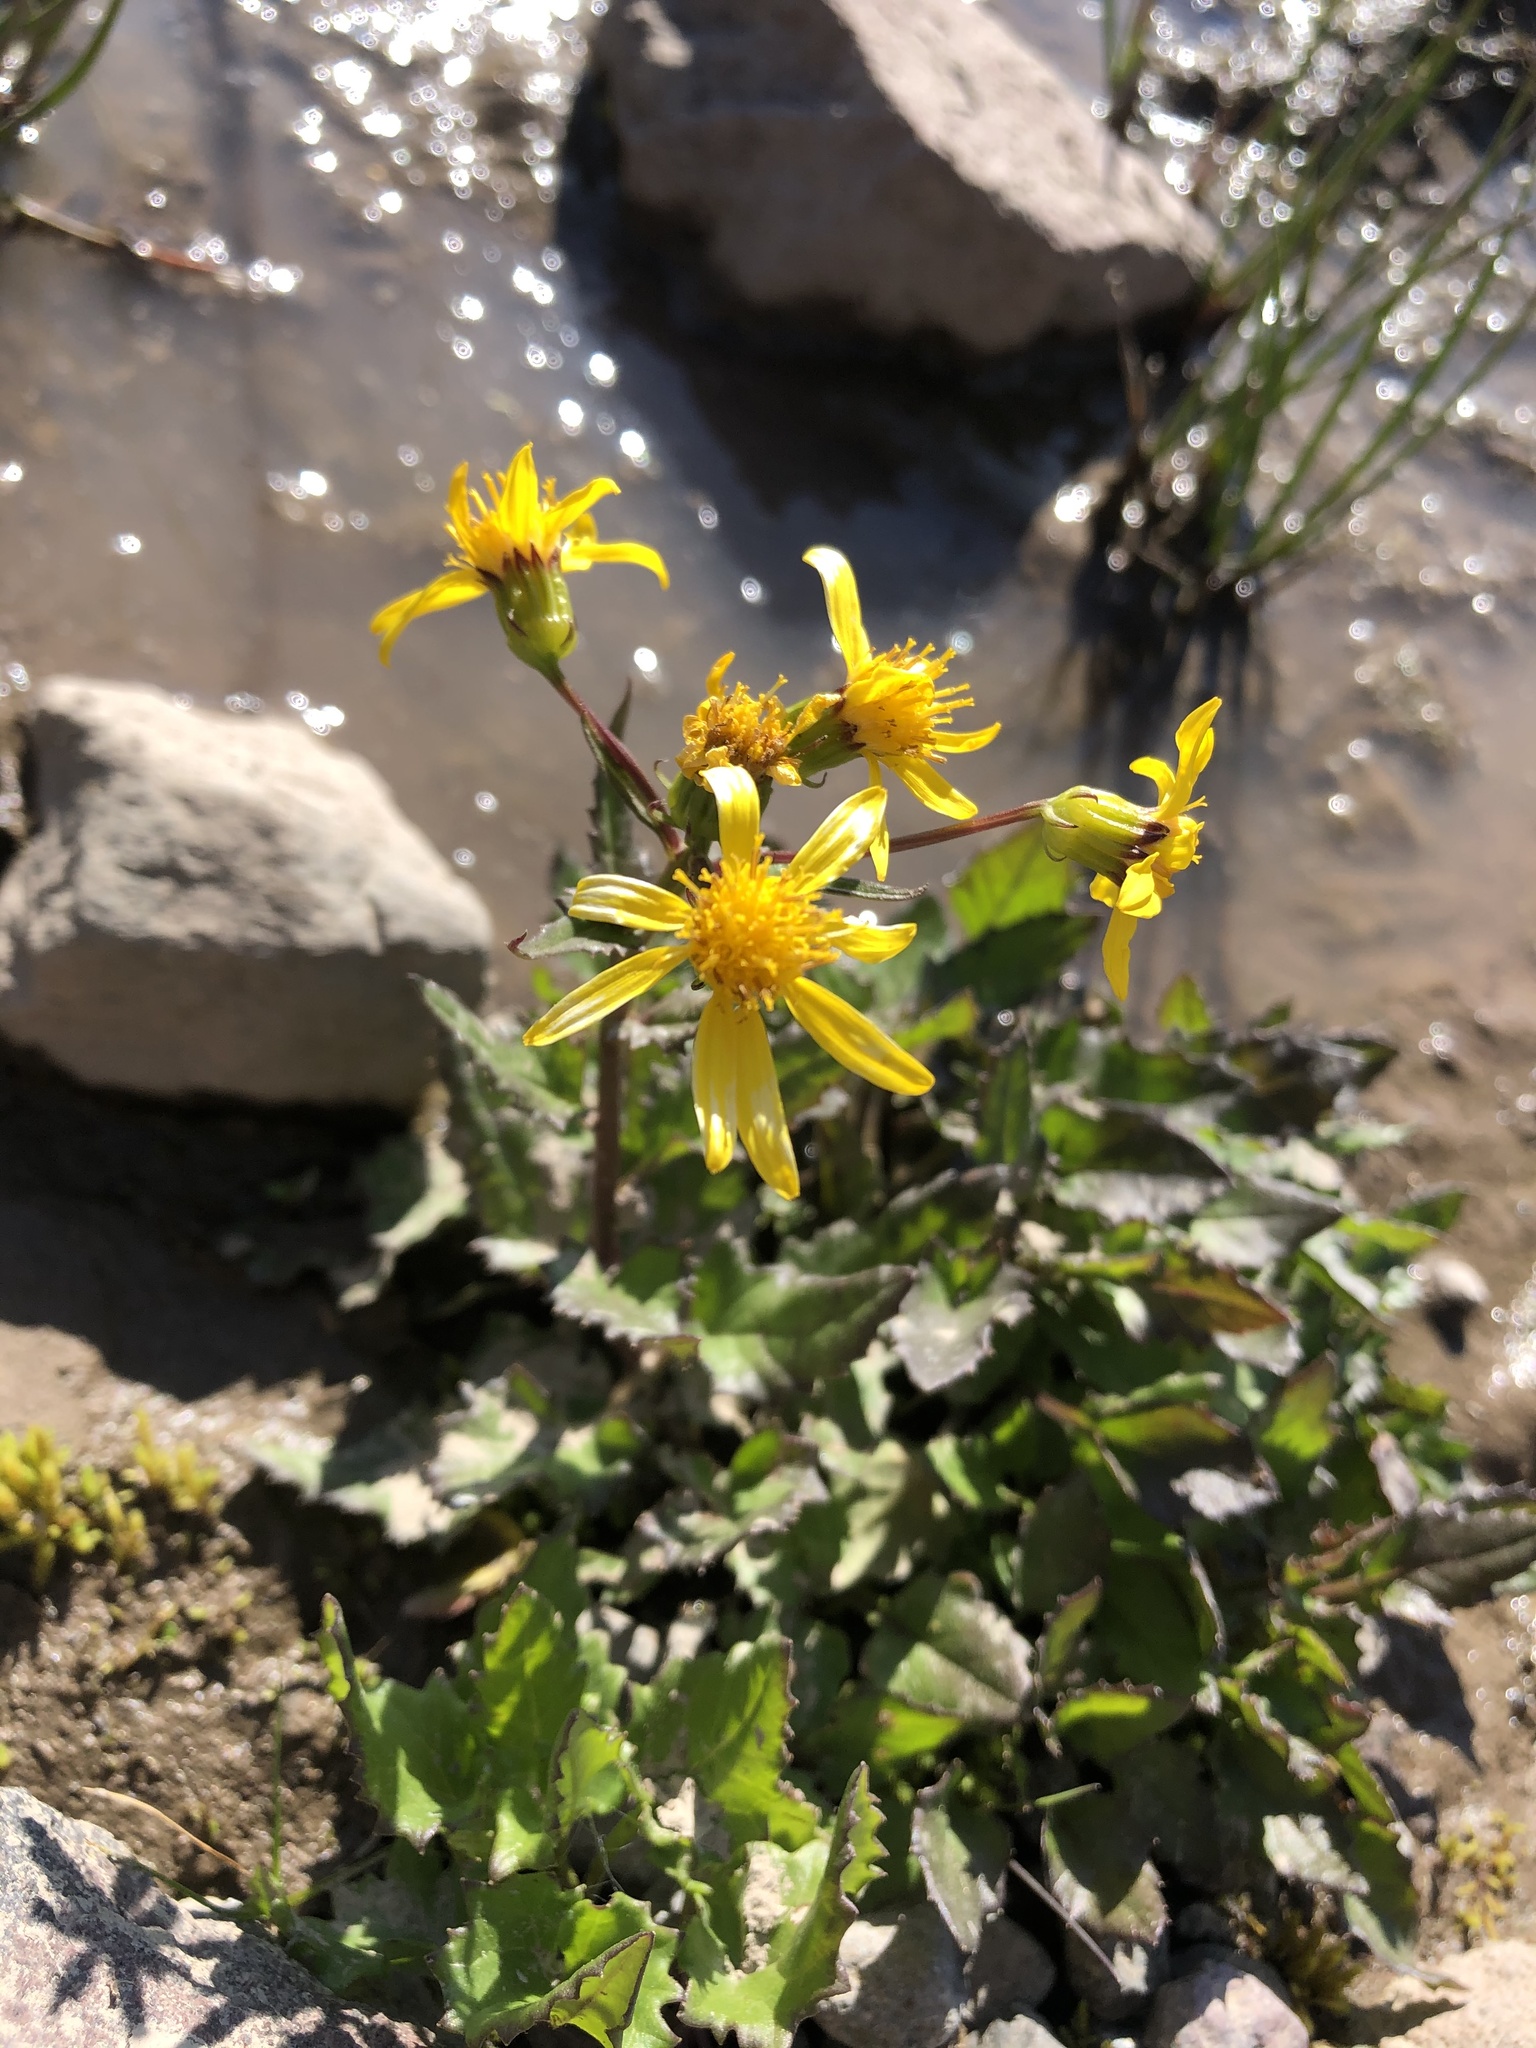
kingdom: Plantae
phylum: Tracheophyta
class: Magnoliopsida
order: Asterales
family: Asteraceae
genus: Senecio
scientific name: Senecio triangularis
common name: Arrowleaf butterweed
